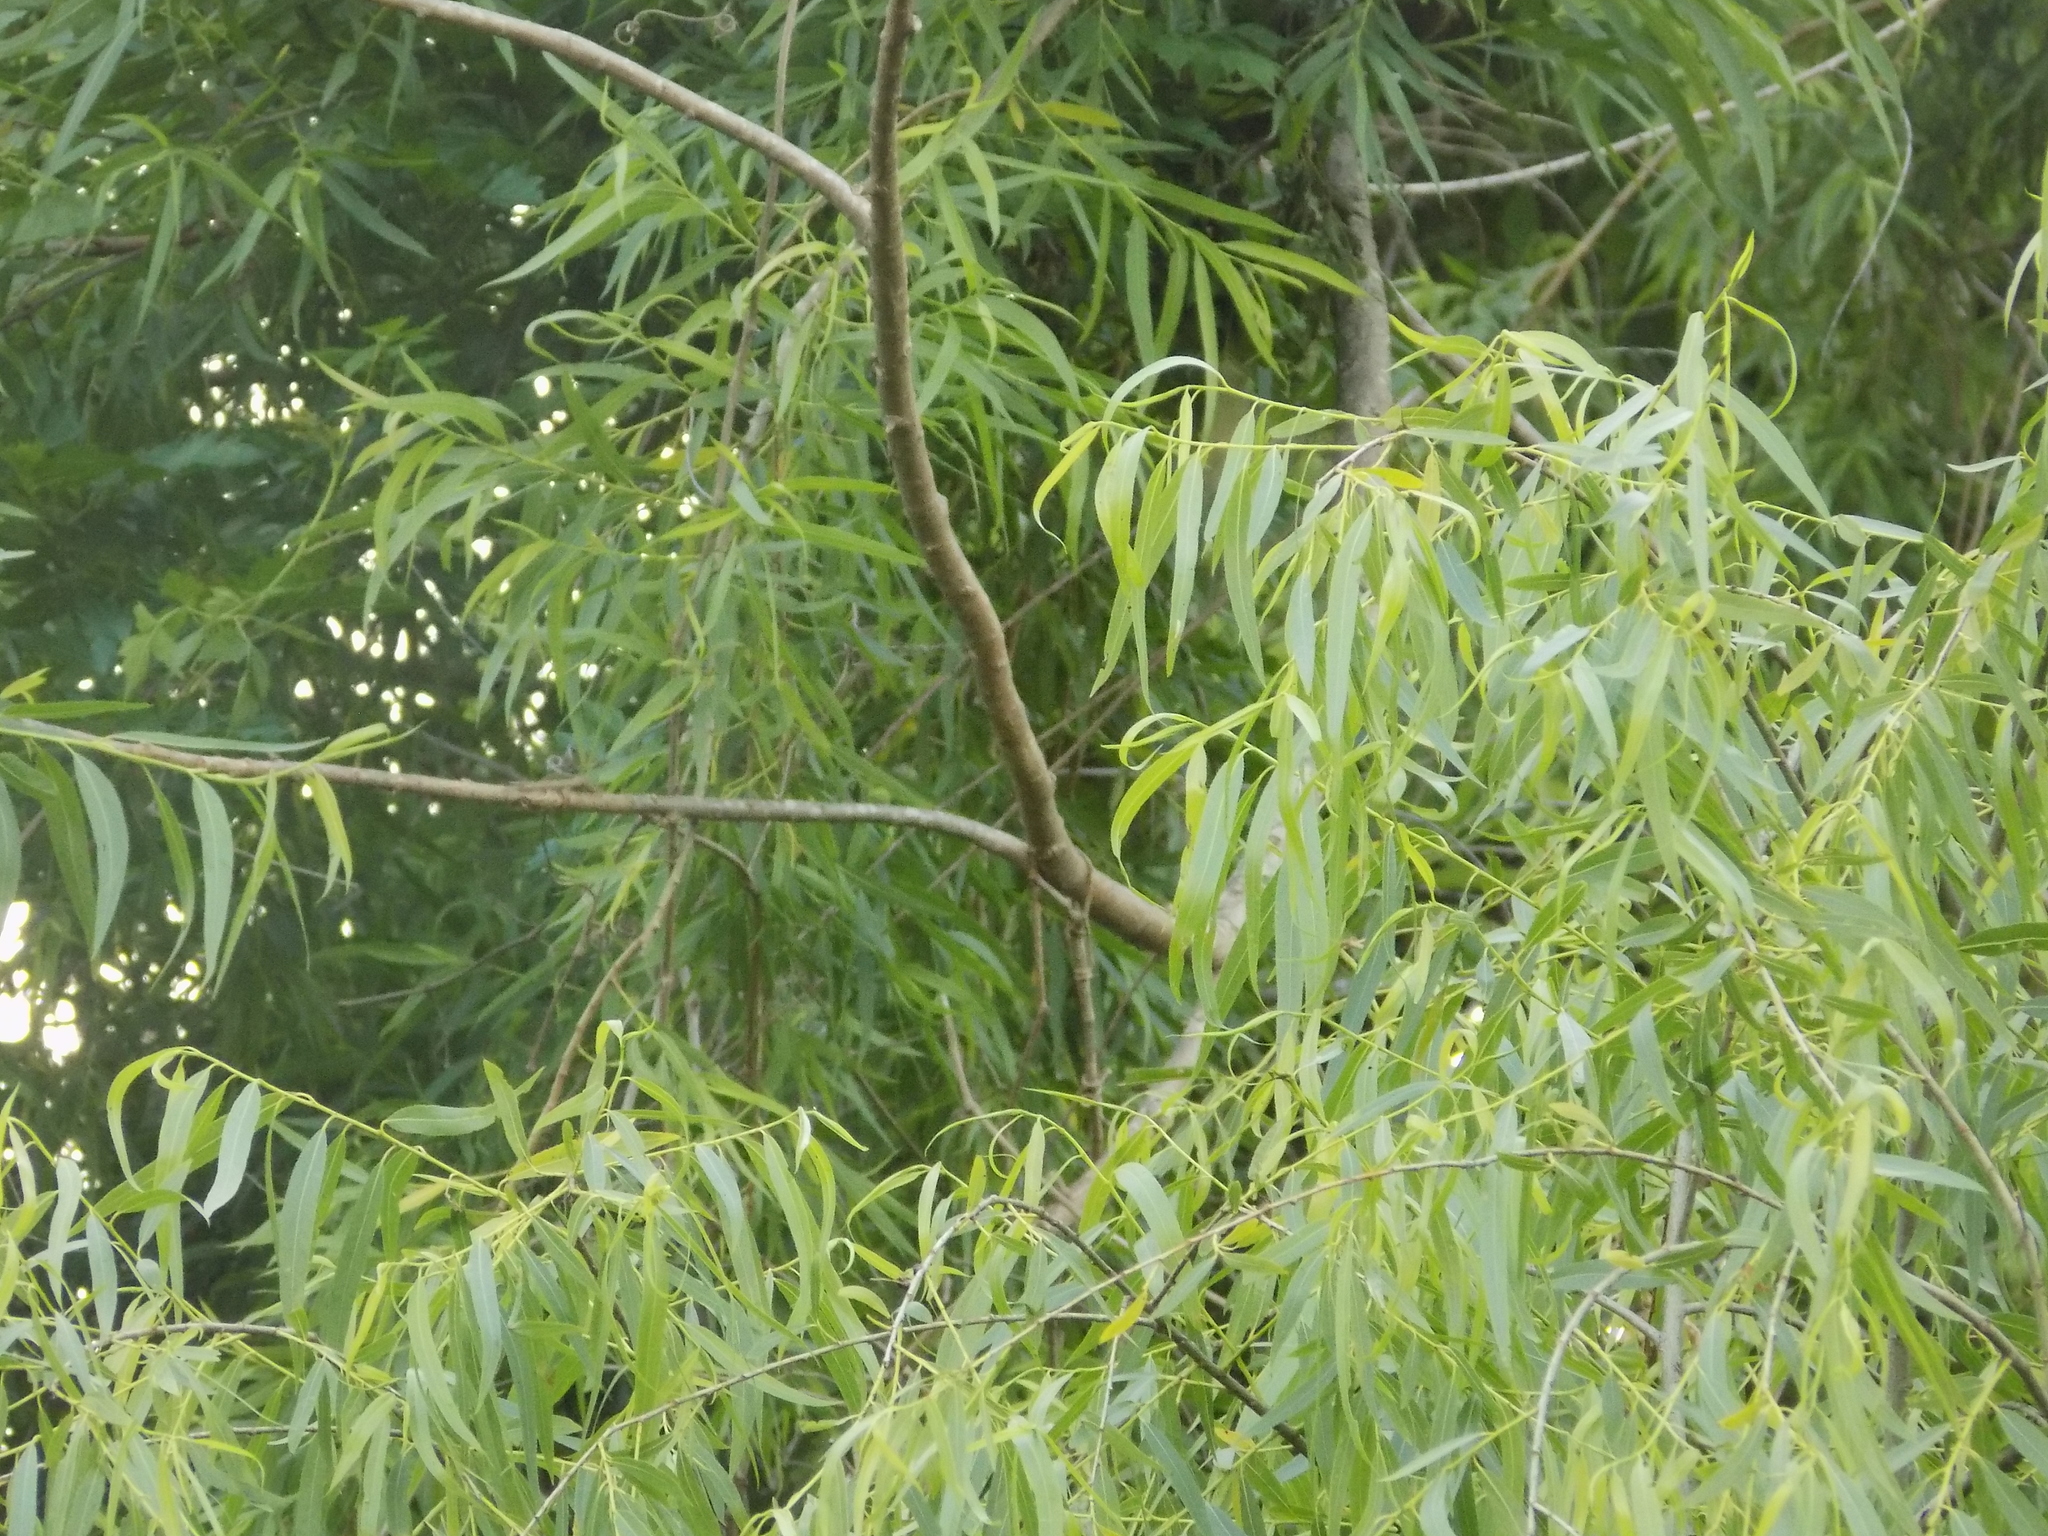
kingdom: Plantae
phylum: Tracheophyta
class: Magnoliopsida
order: Malpighiales
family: Salicaceae
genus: Salix
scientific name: Salix nigra
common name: Black willow
